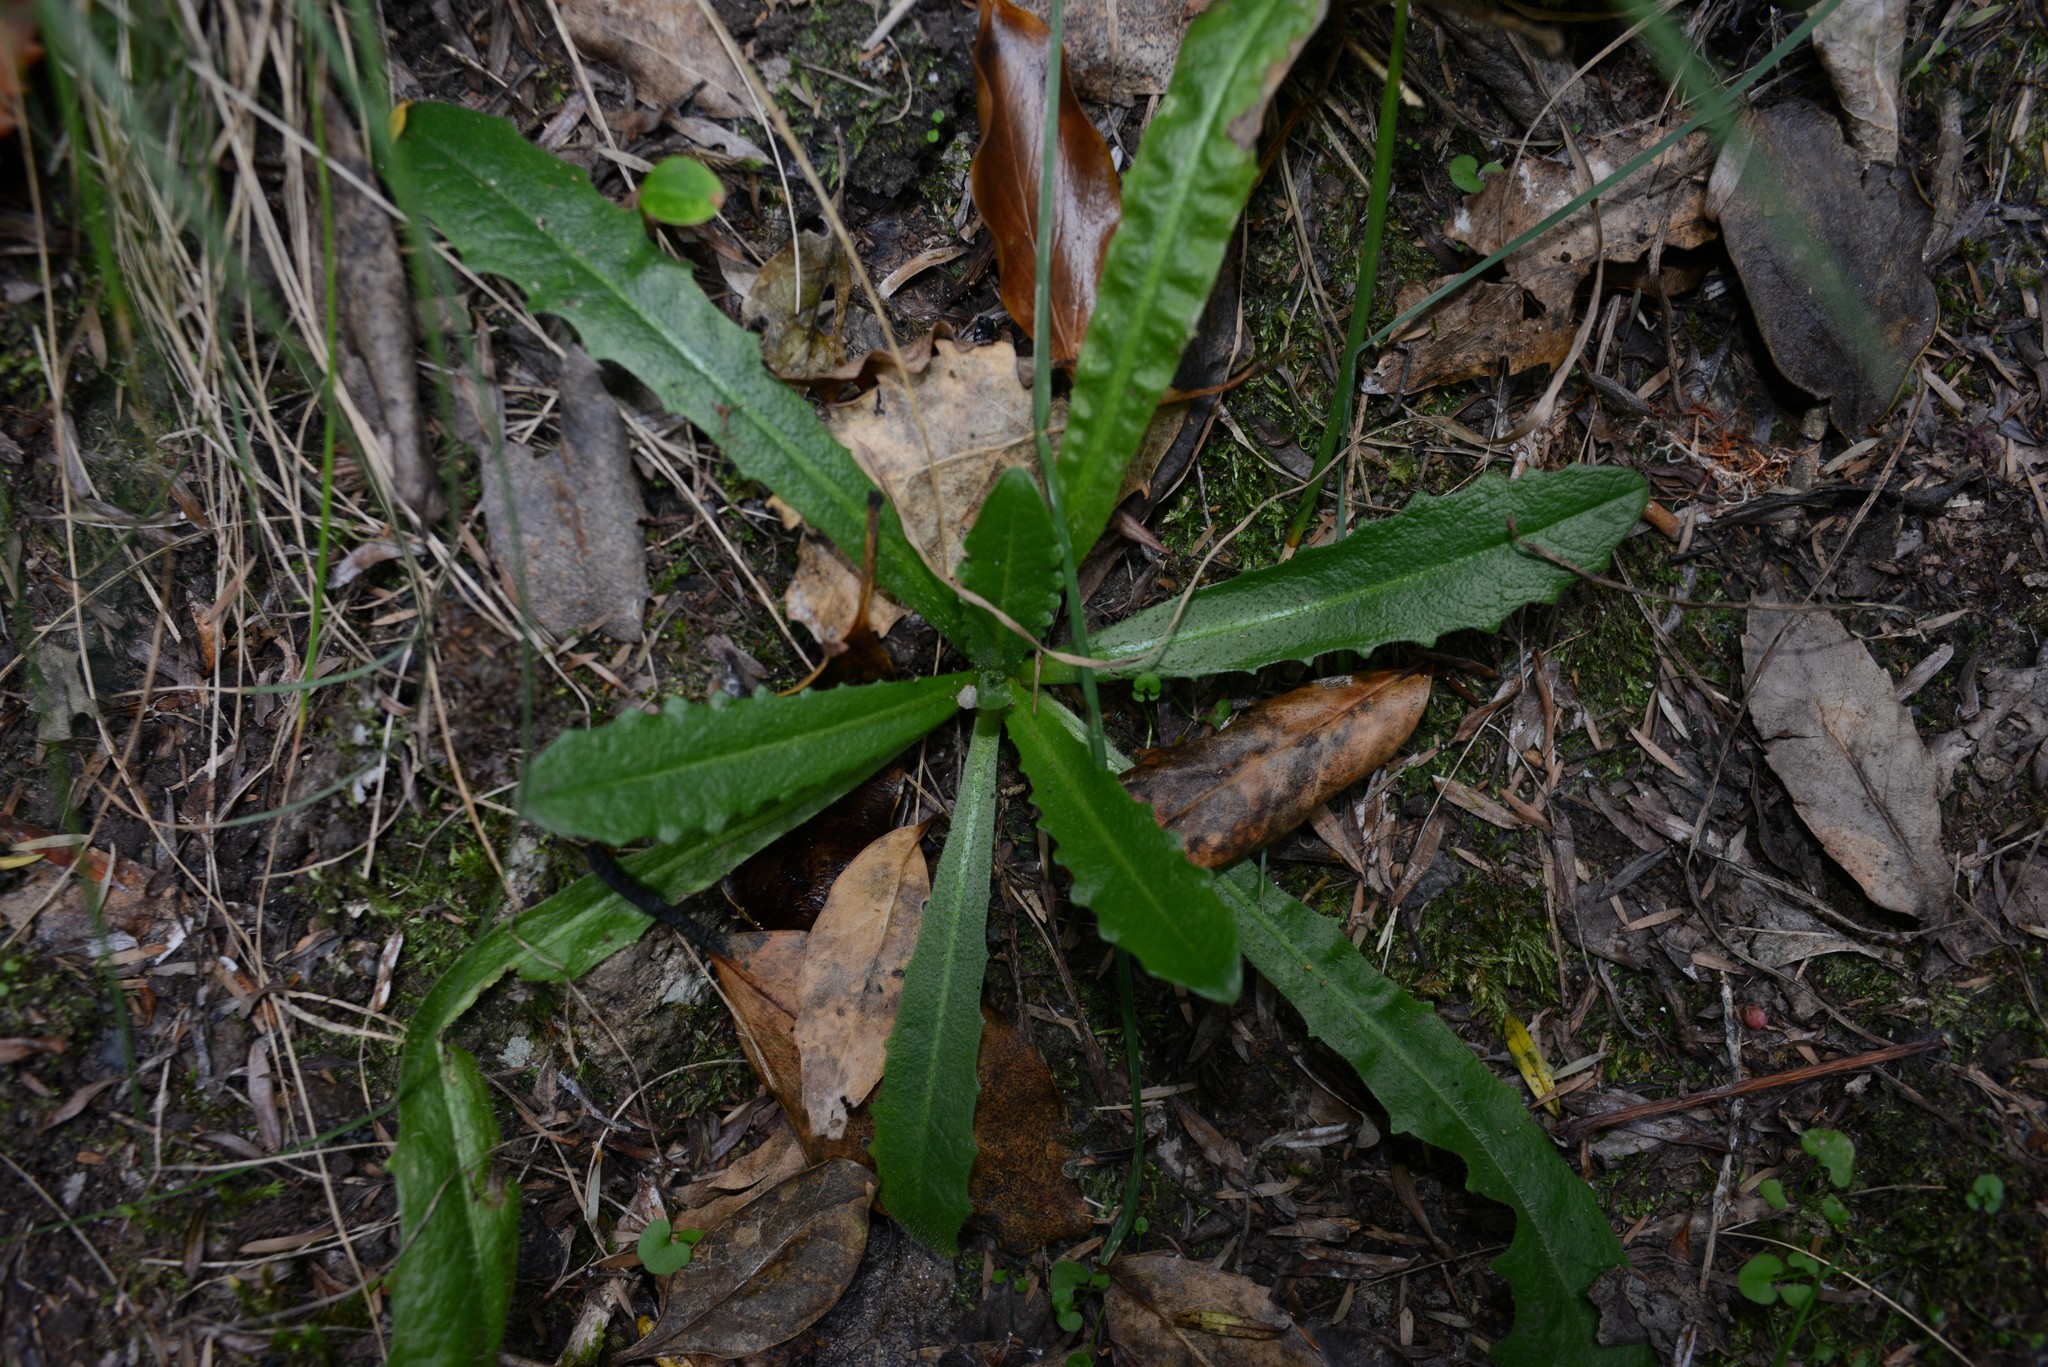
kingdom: Plantae
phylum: Tracheophyta
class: Magnoliopsida
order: Asterales
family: Asteraceae
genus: Hypochaeris
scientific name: Hypochaeris radicata
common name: Flatweed
